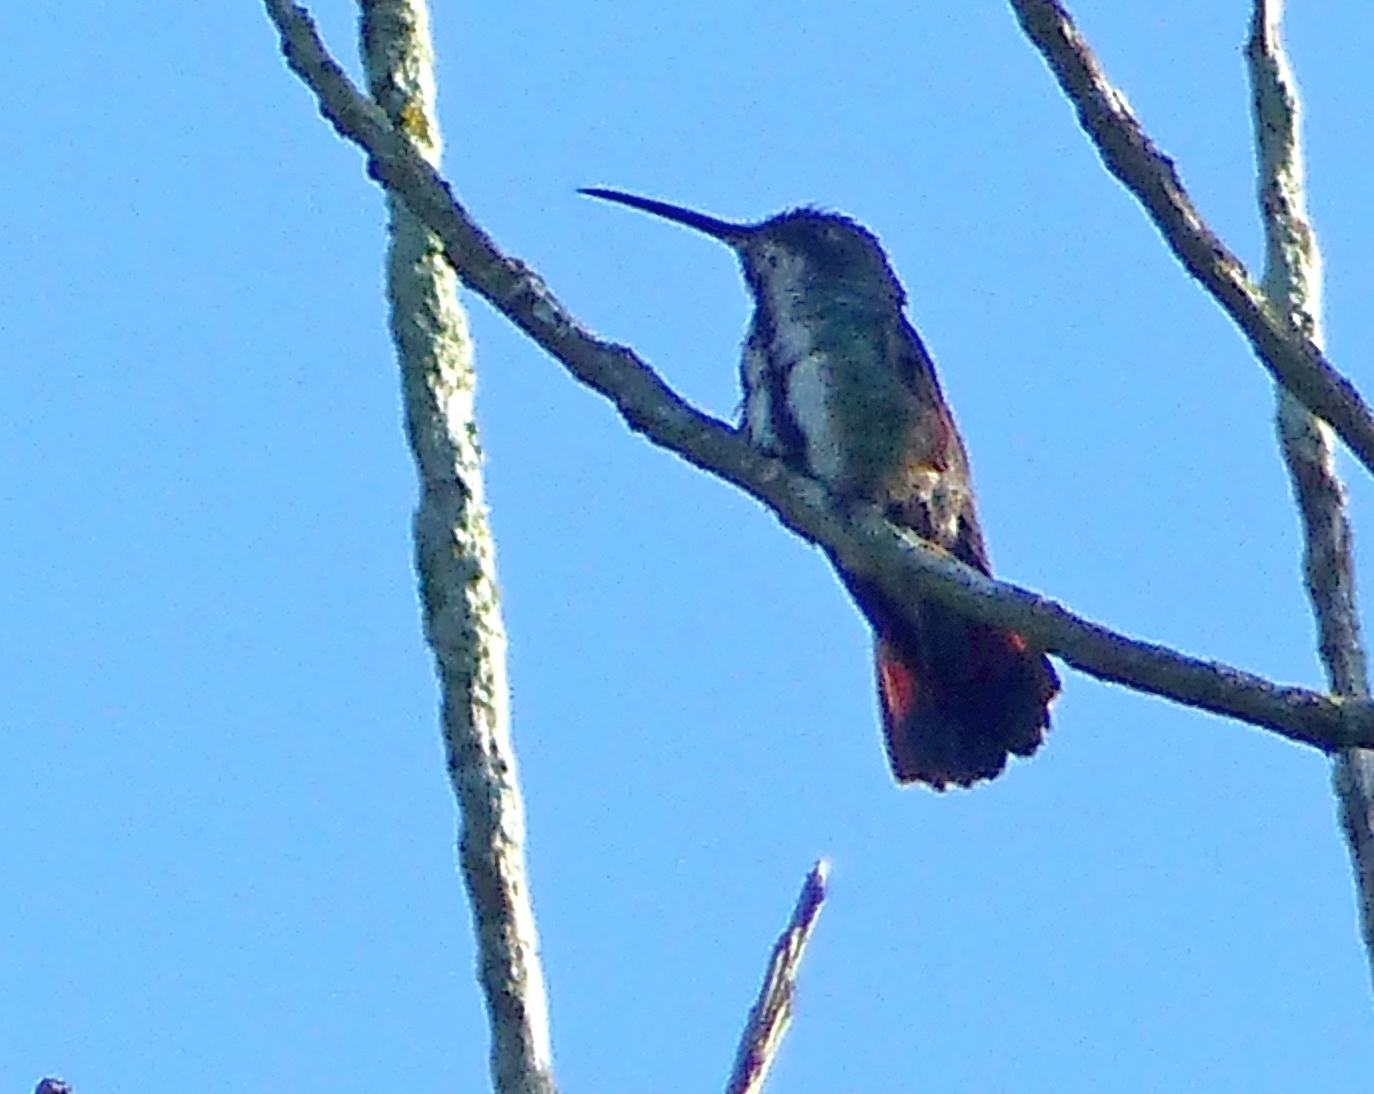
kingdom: Animalia
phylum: Chordata
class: Aves
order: Apodiformes
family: Trochilidae
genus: Anthracothorax
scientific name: Anthracothorax nigricollis
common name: Black-throated mango
